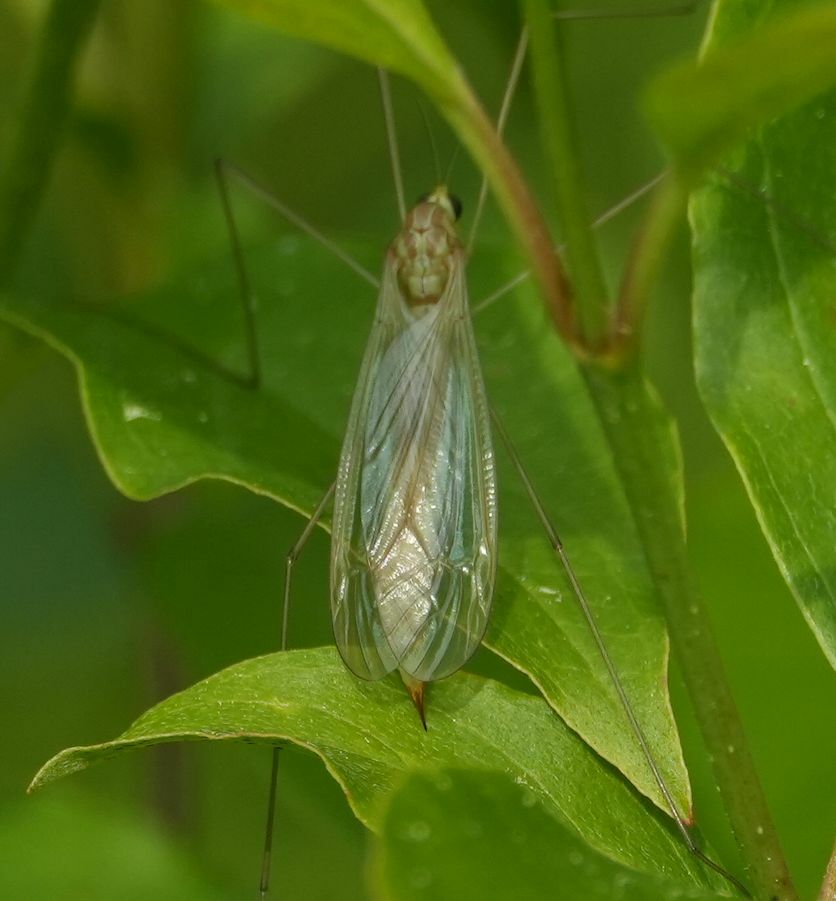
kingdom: Animalia
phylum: Arthropoda
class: Insecta
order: Diptera
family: Tipulidae
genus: Nephrotoma
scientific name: Nephrotoma ferruginea
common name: Ferruginous tiger crane fly
